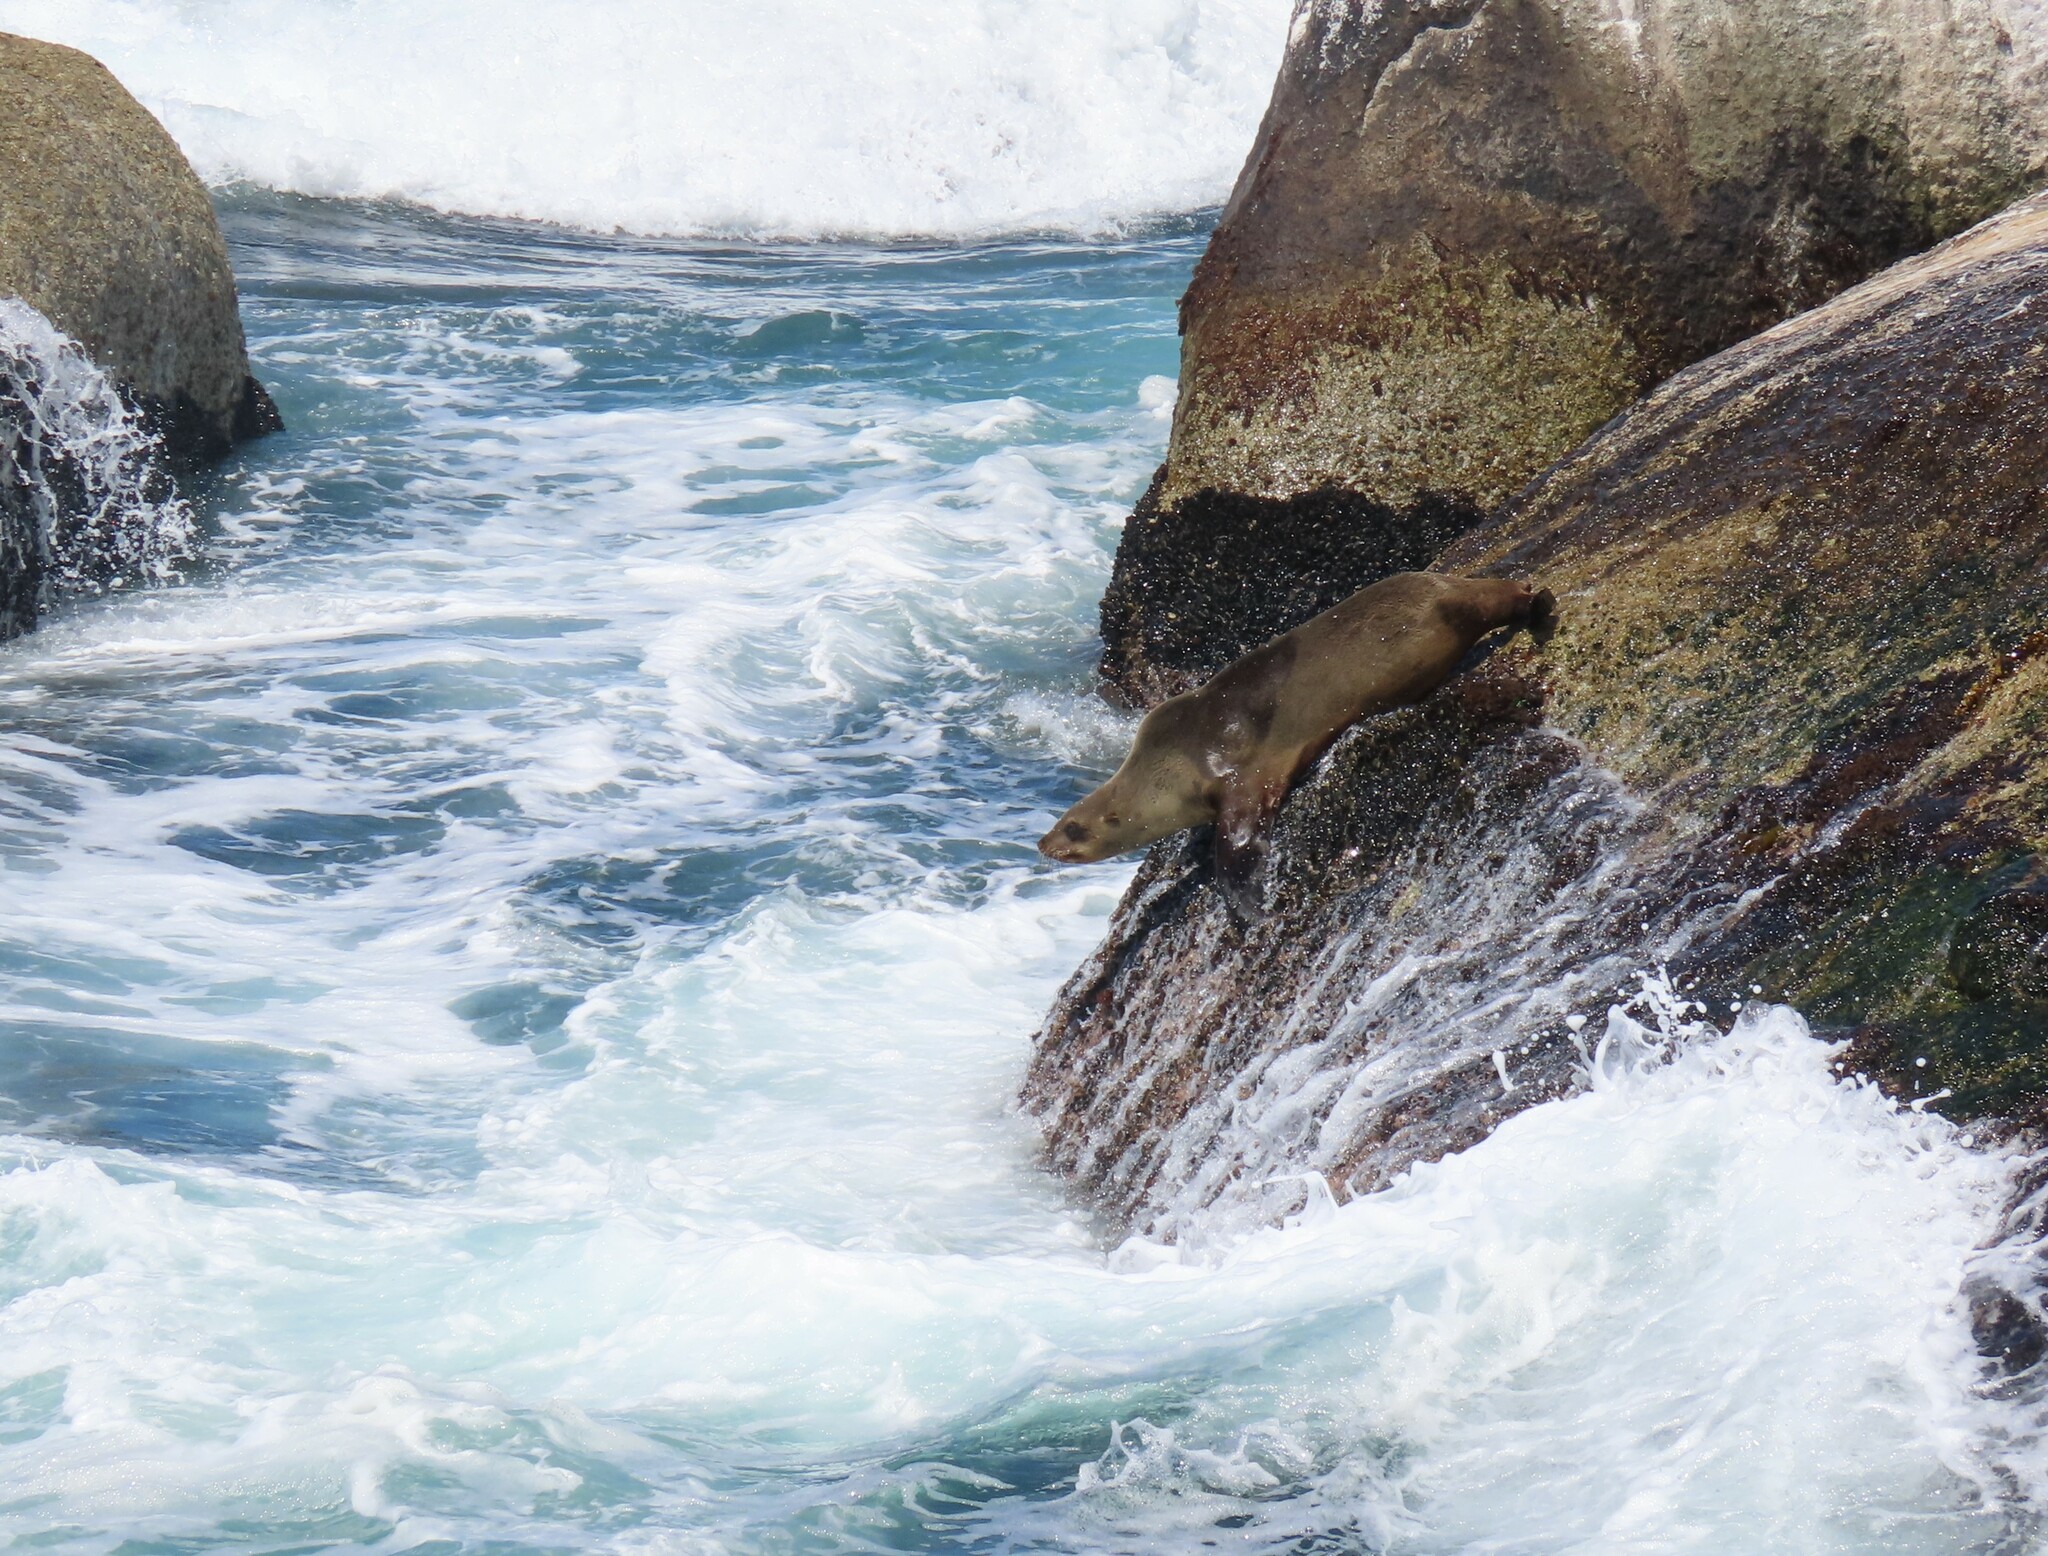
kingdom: Animalia
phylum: Chordata
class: Mammalia
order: Carnivora
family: Otariidae
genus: Arctocephalus
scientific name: Arctocephalus pusillus
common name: Brown fur seal
